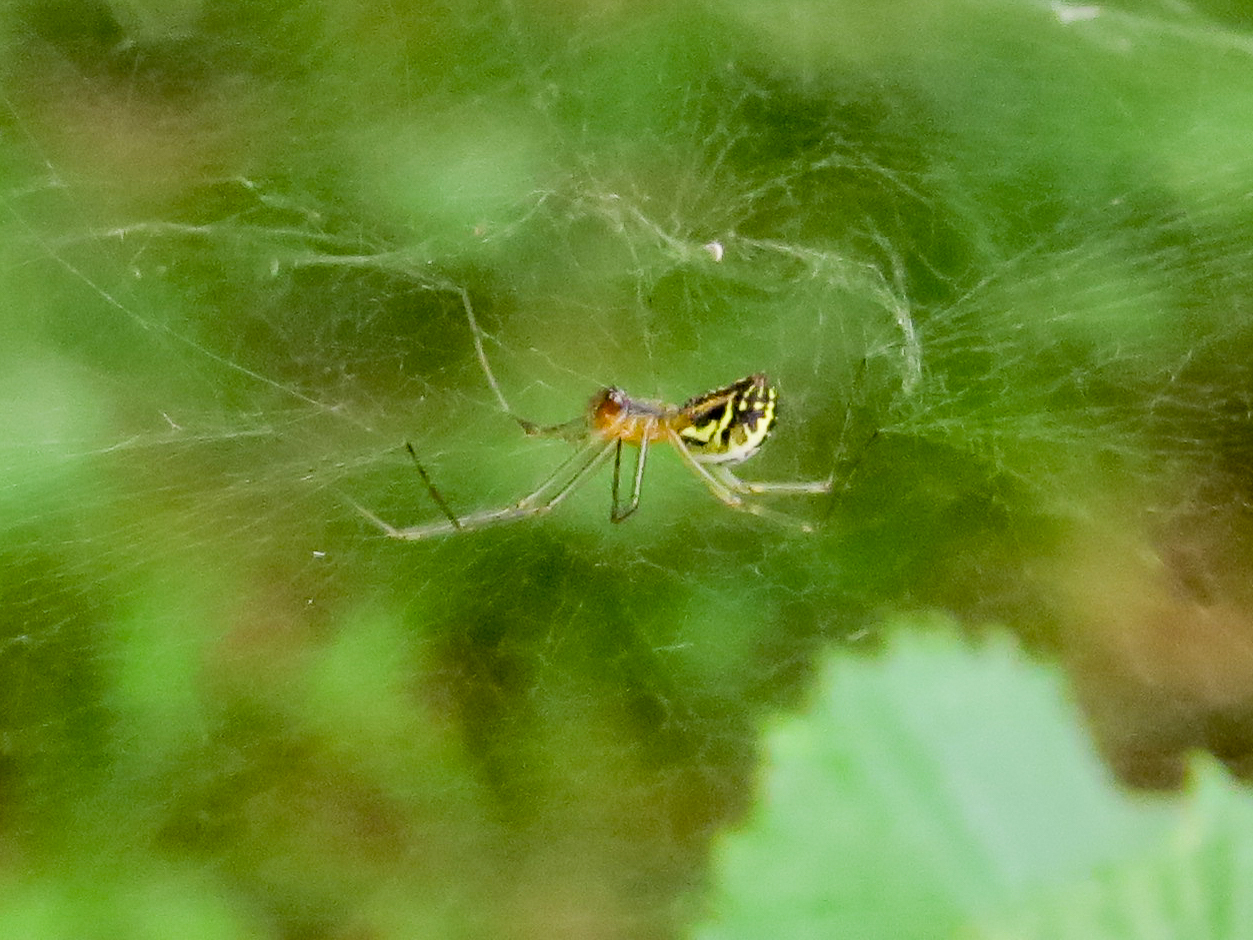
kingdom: Animalia
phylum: Arthropoda
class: Arachnida
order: Araneae
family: Linyphiidae
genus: Neriene
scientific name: Neriene emphana
